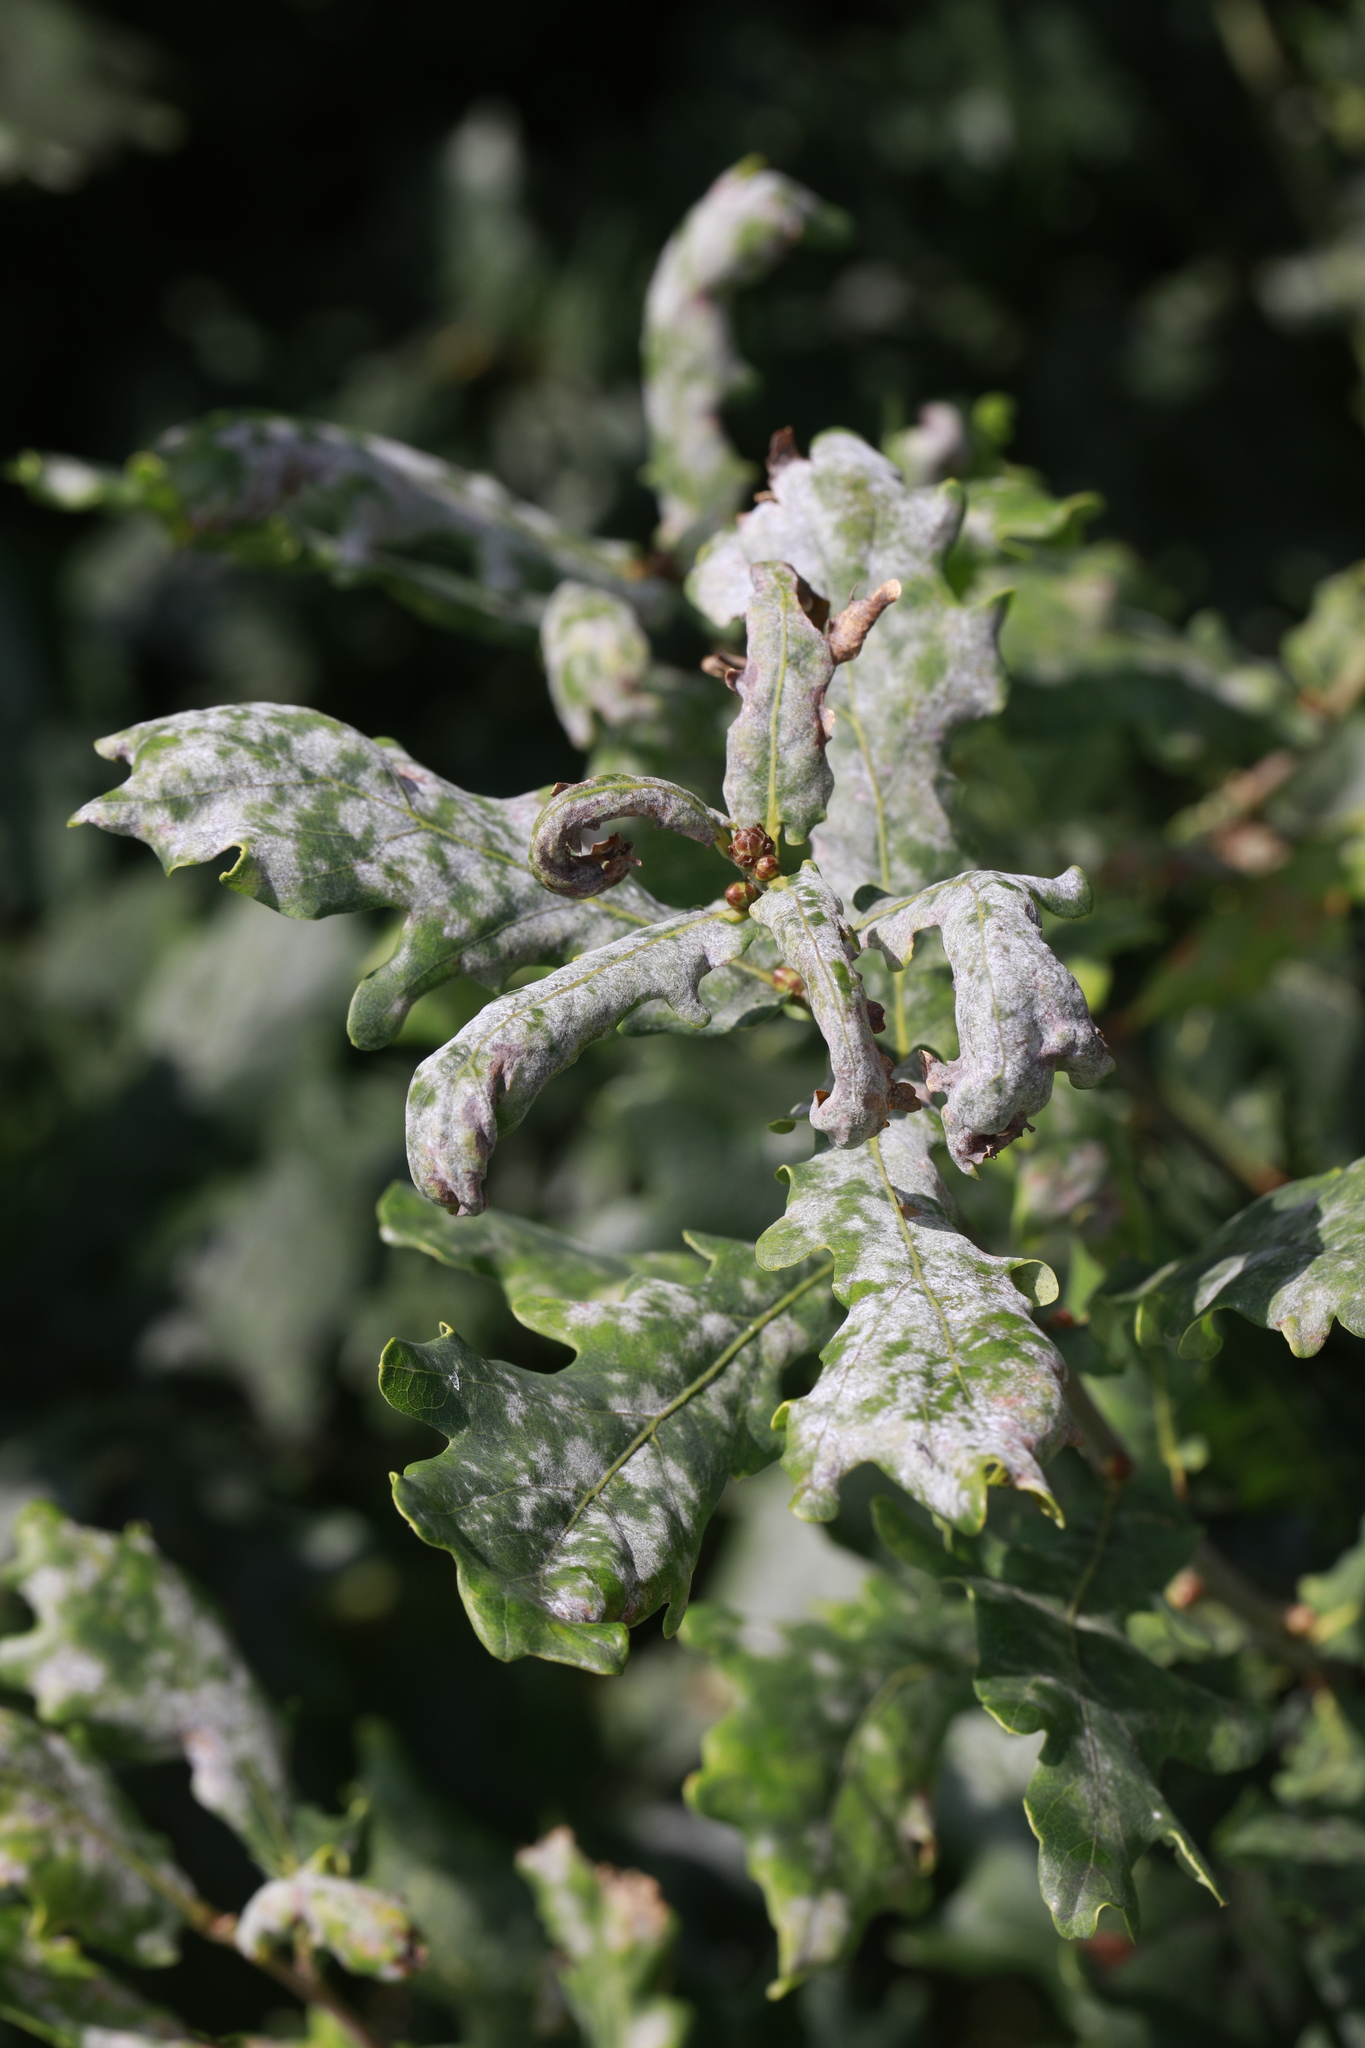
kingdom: Fungi
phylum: Ascomycota
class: Leotiomycetes
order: Helotiales
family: Erysiphaceae
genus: Erysiphe
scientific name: Erysiphe alphitoides
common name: Oak mildew
